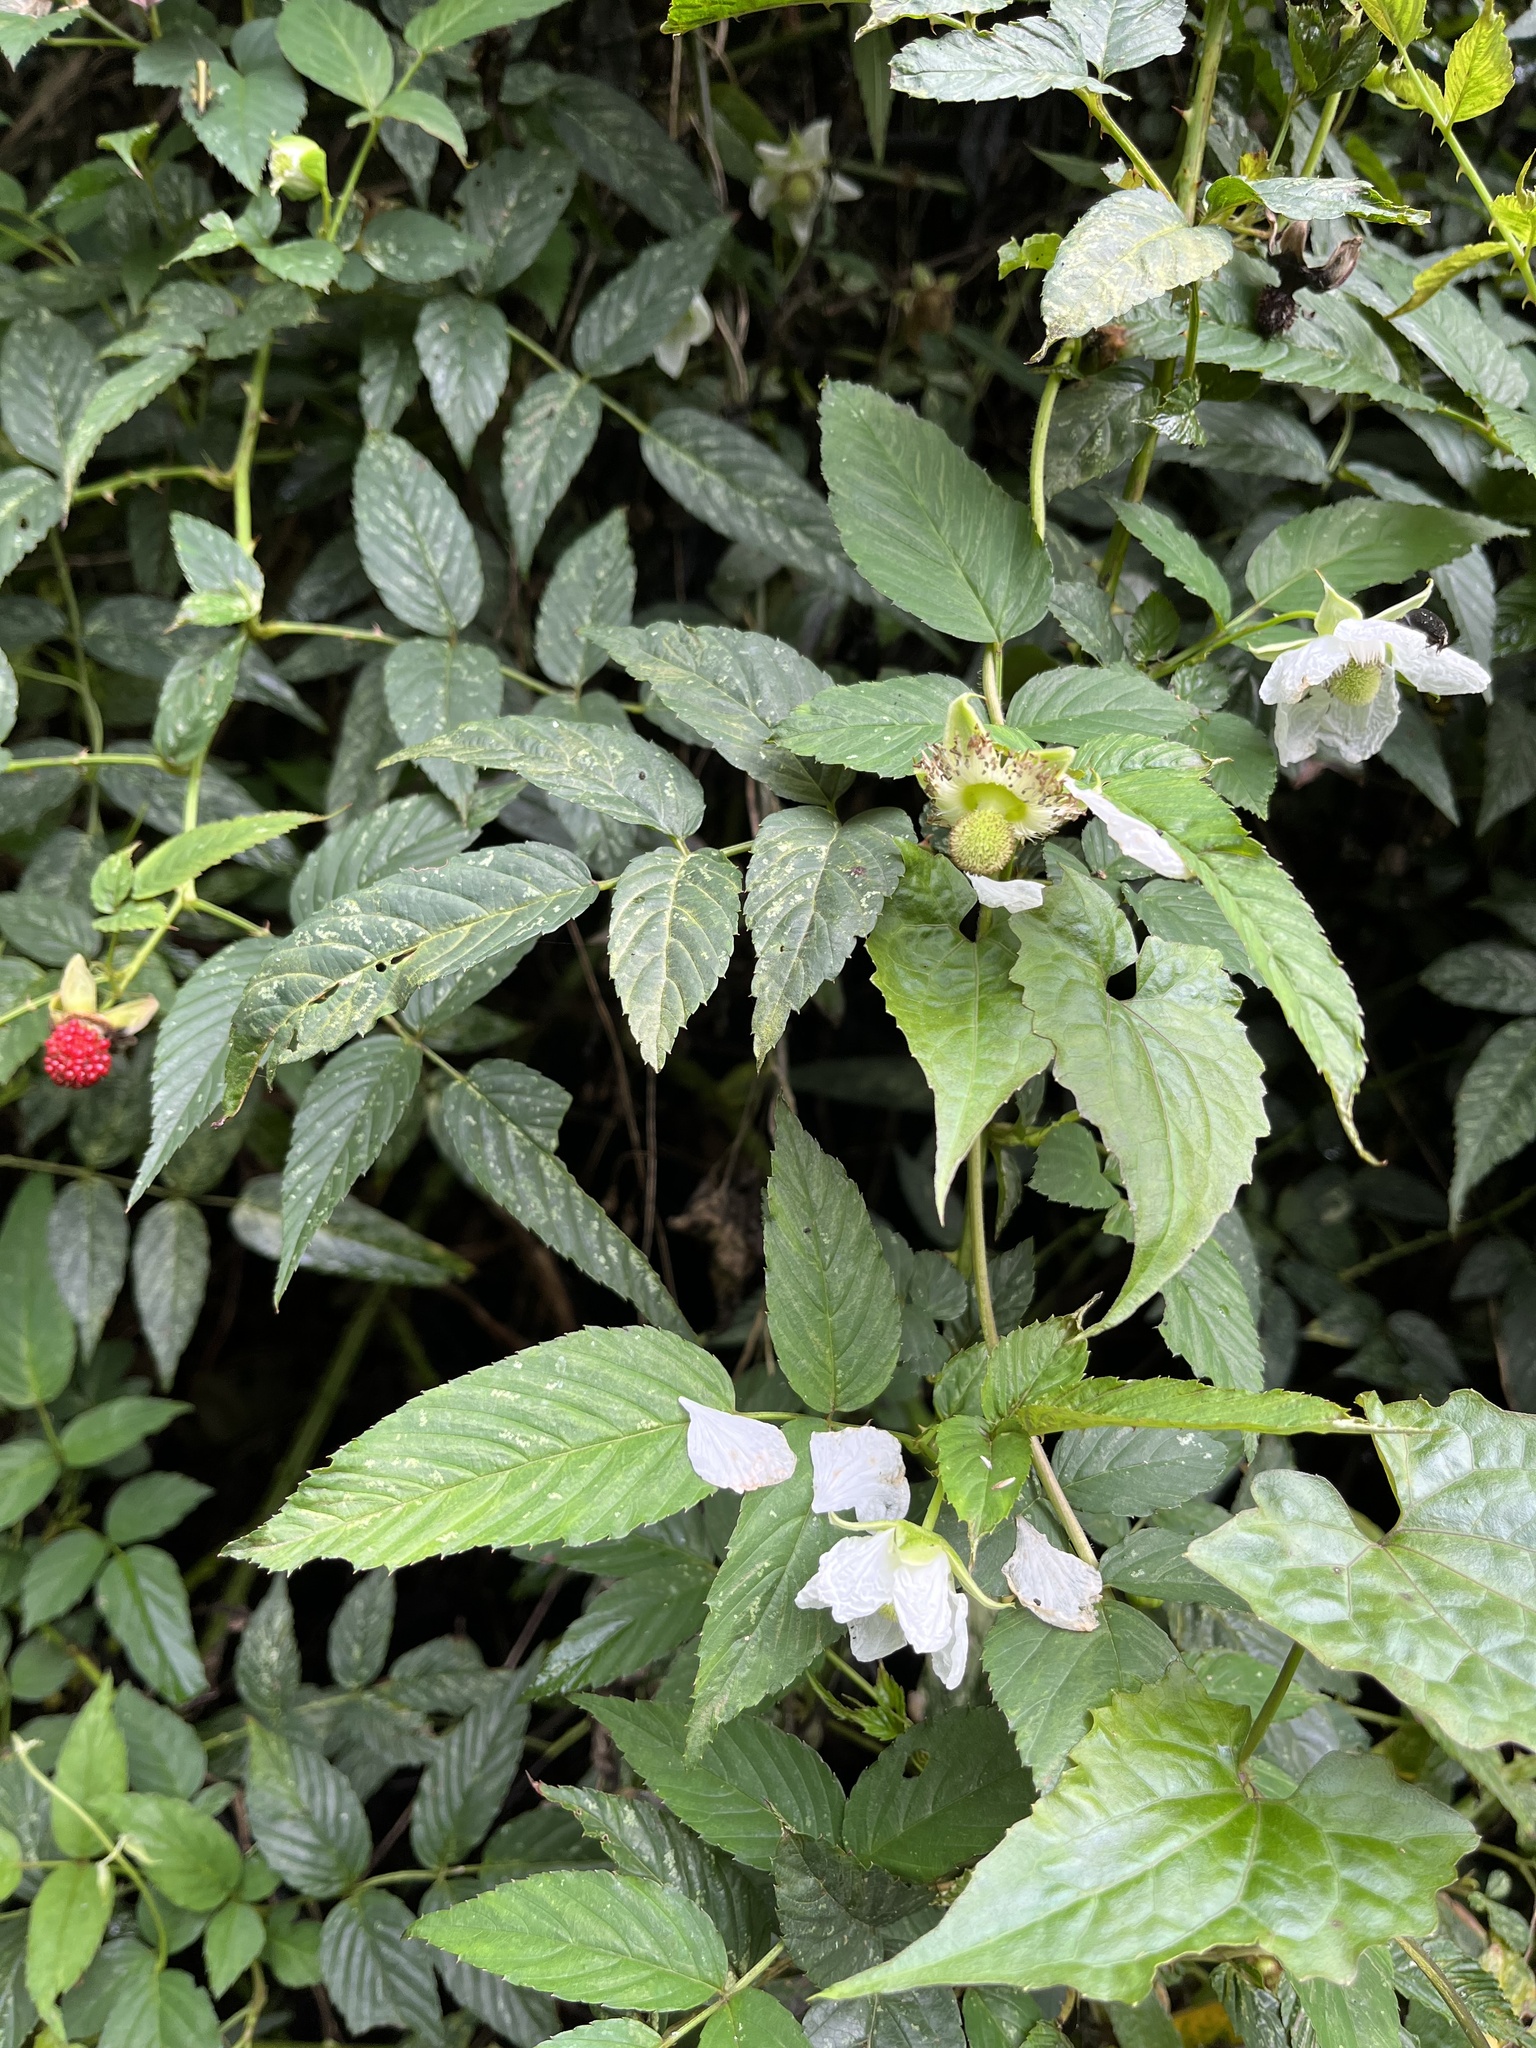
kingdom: Plantae
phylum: Tracheophyta
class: Magnoliopsida
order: Rosales
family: Rosaceae
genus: Rubus
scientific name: Rubus croceacanthus
